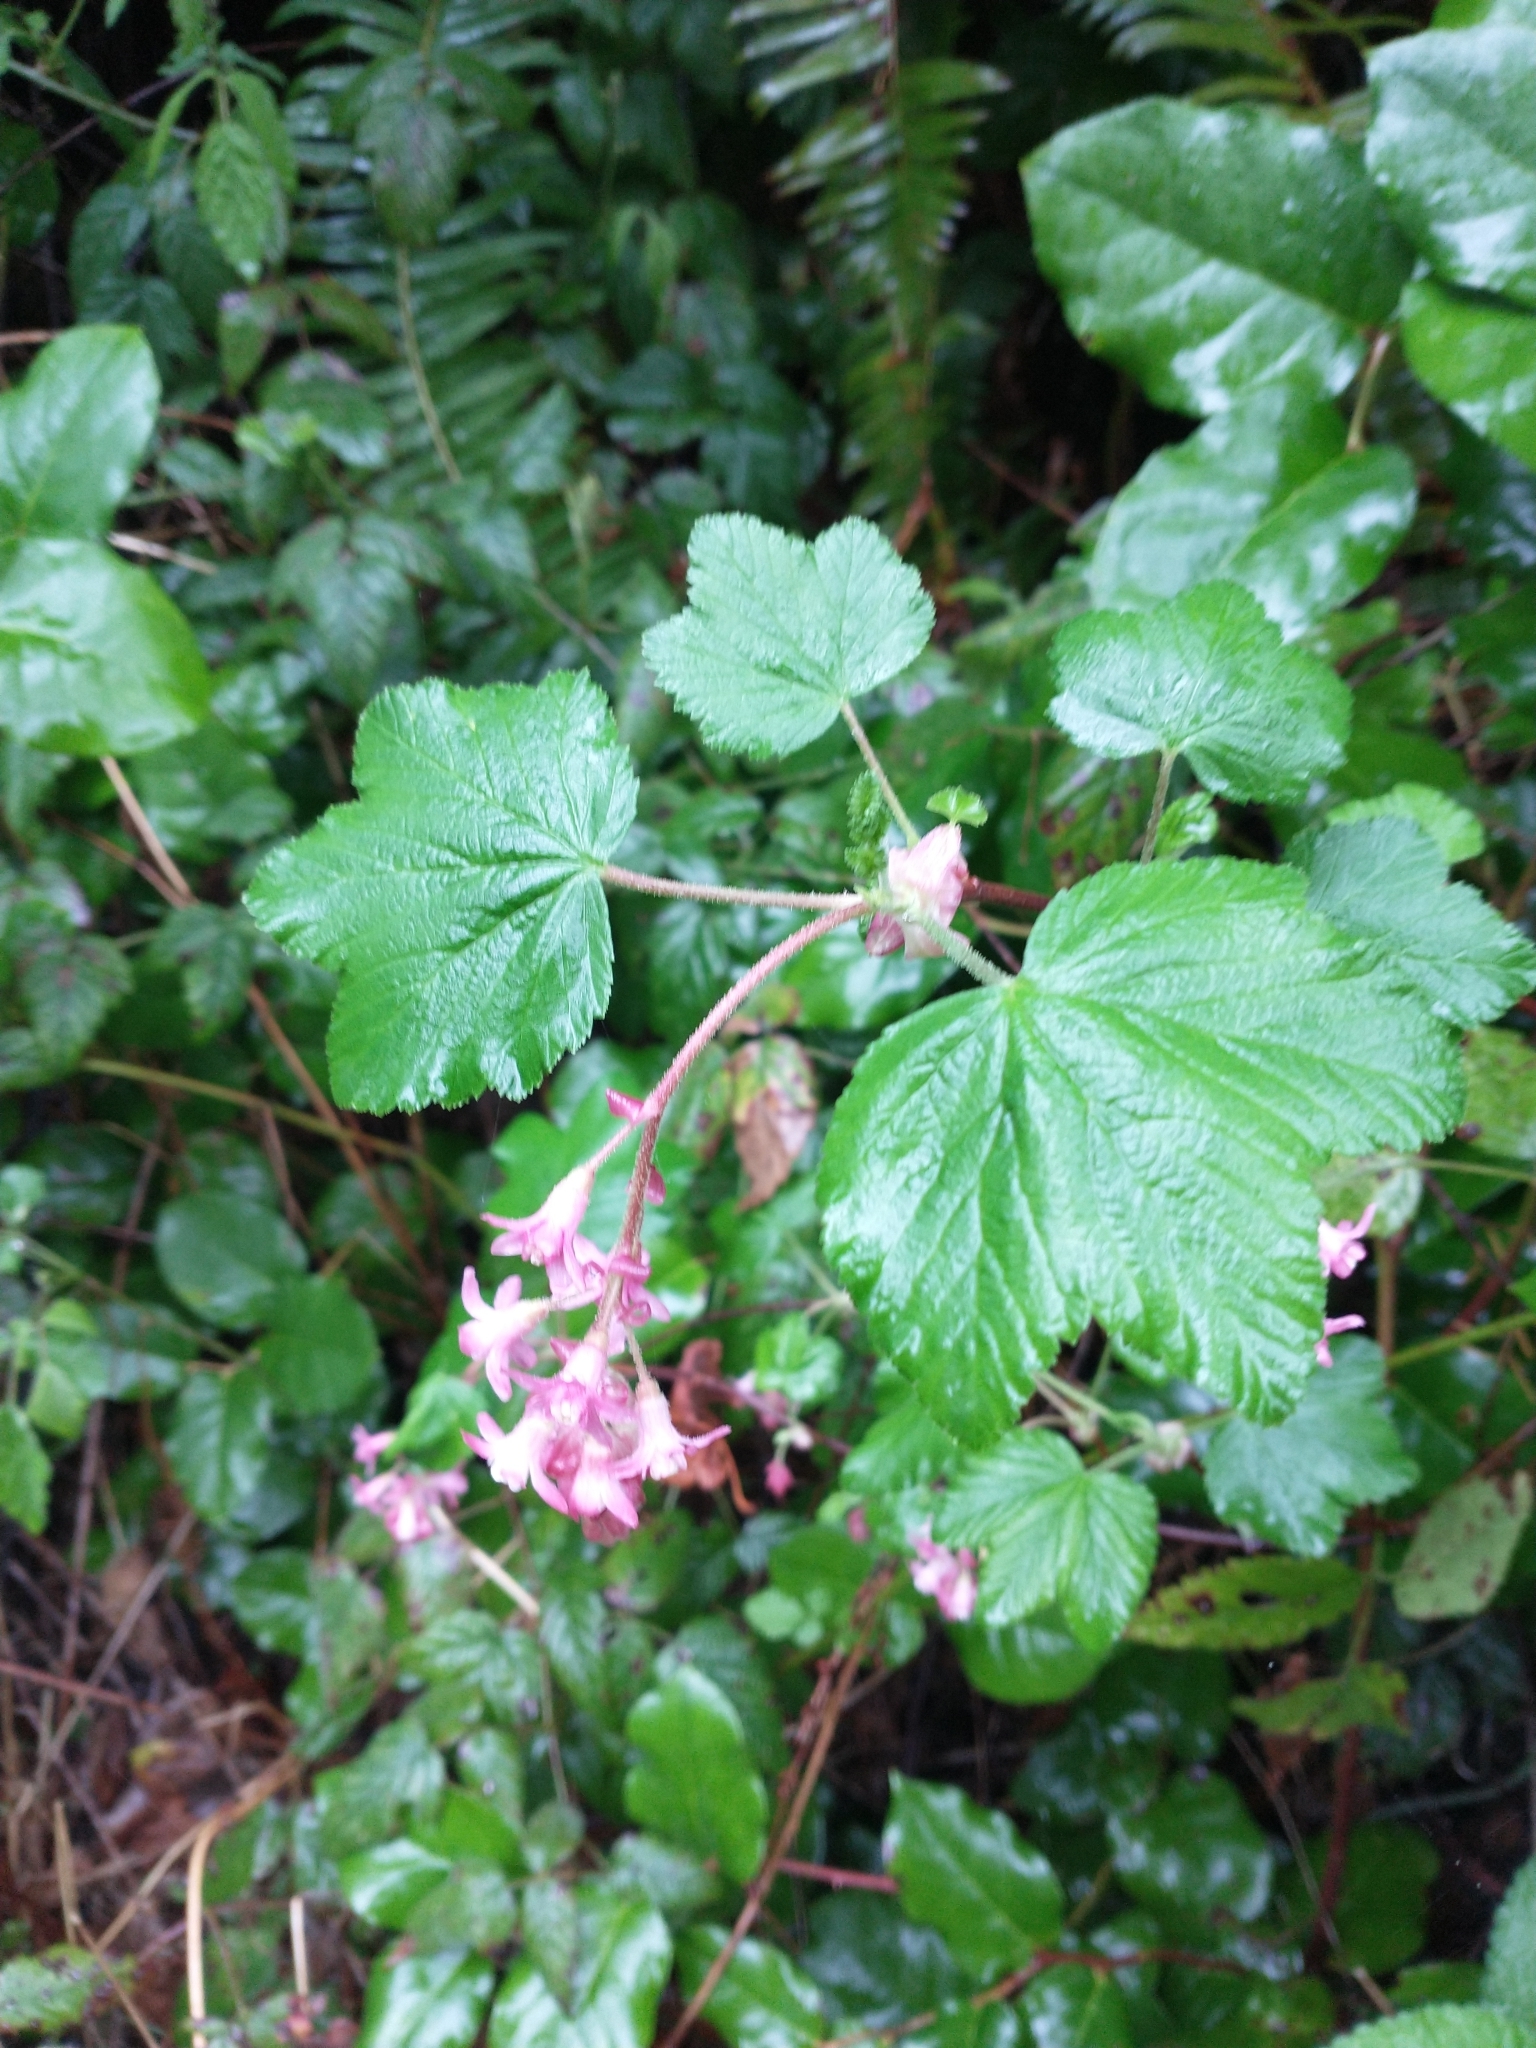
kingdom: Plantae
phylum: Tracheophyta
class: Magnoliopsida
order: Saxifragales
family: Grossulariaceae
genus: Ribes
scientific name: Ribes sanguineum
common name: Flowering currant
